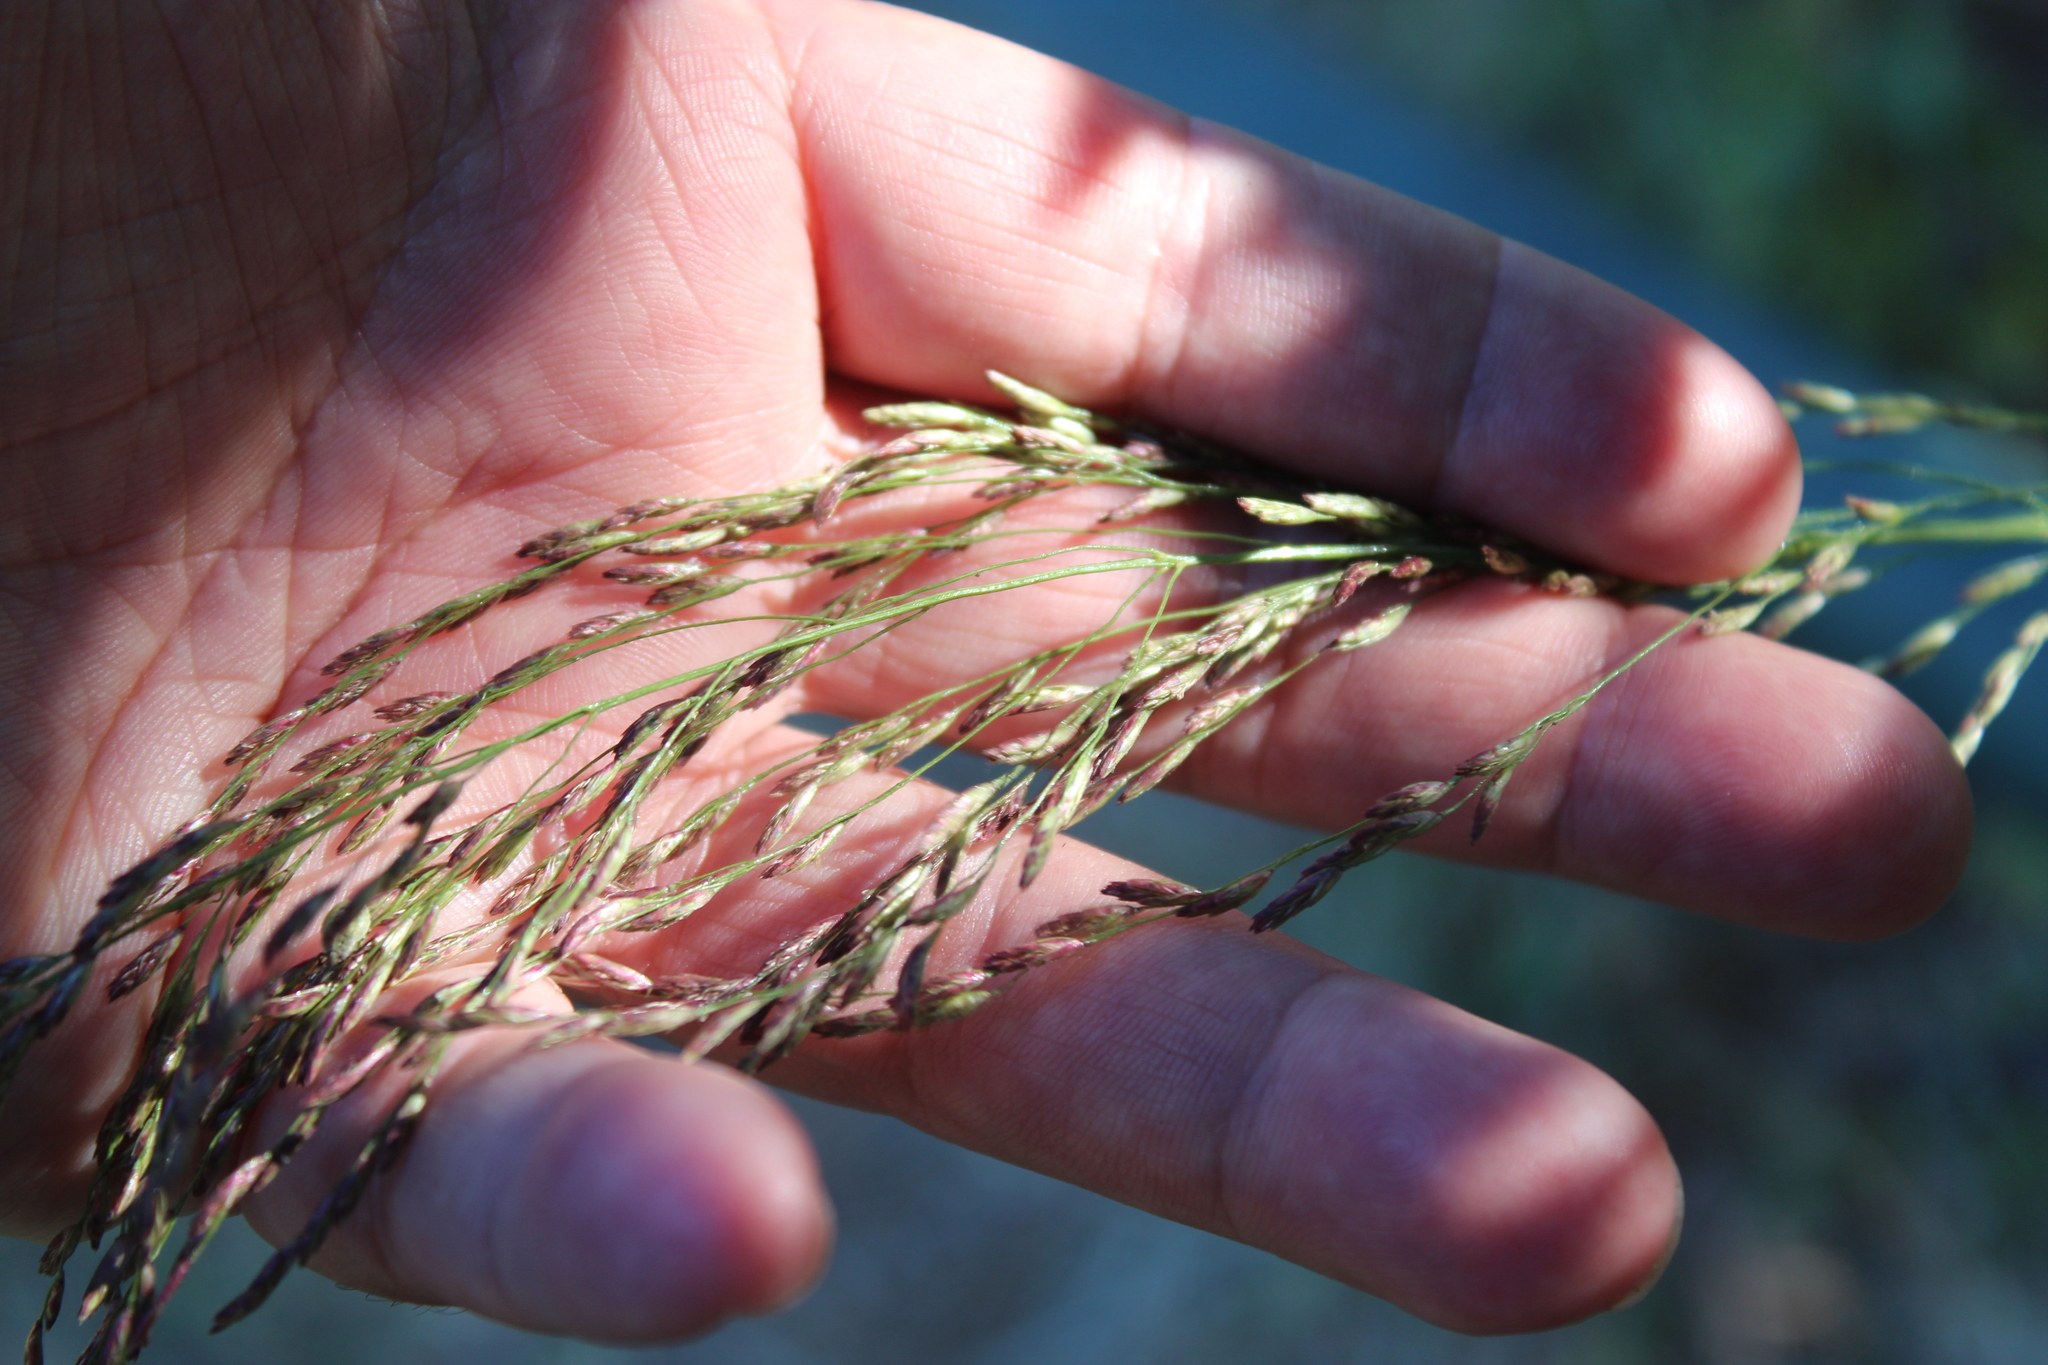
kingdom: Plantae
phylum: Tracheophyta
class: Liliopsida
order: Poales
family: Poaceae
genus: Tridens
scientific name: Tridens flavus
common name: Purpletop
